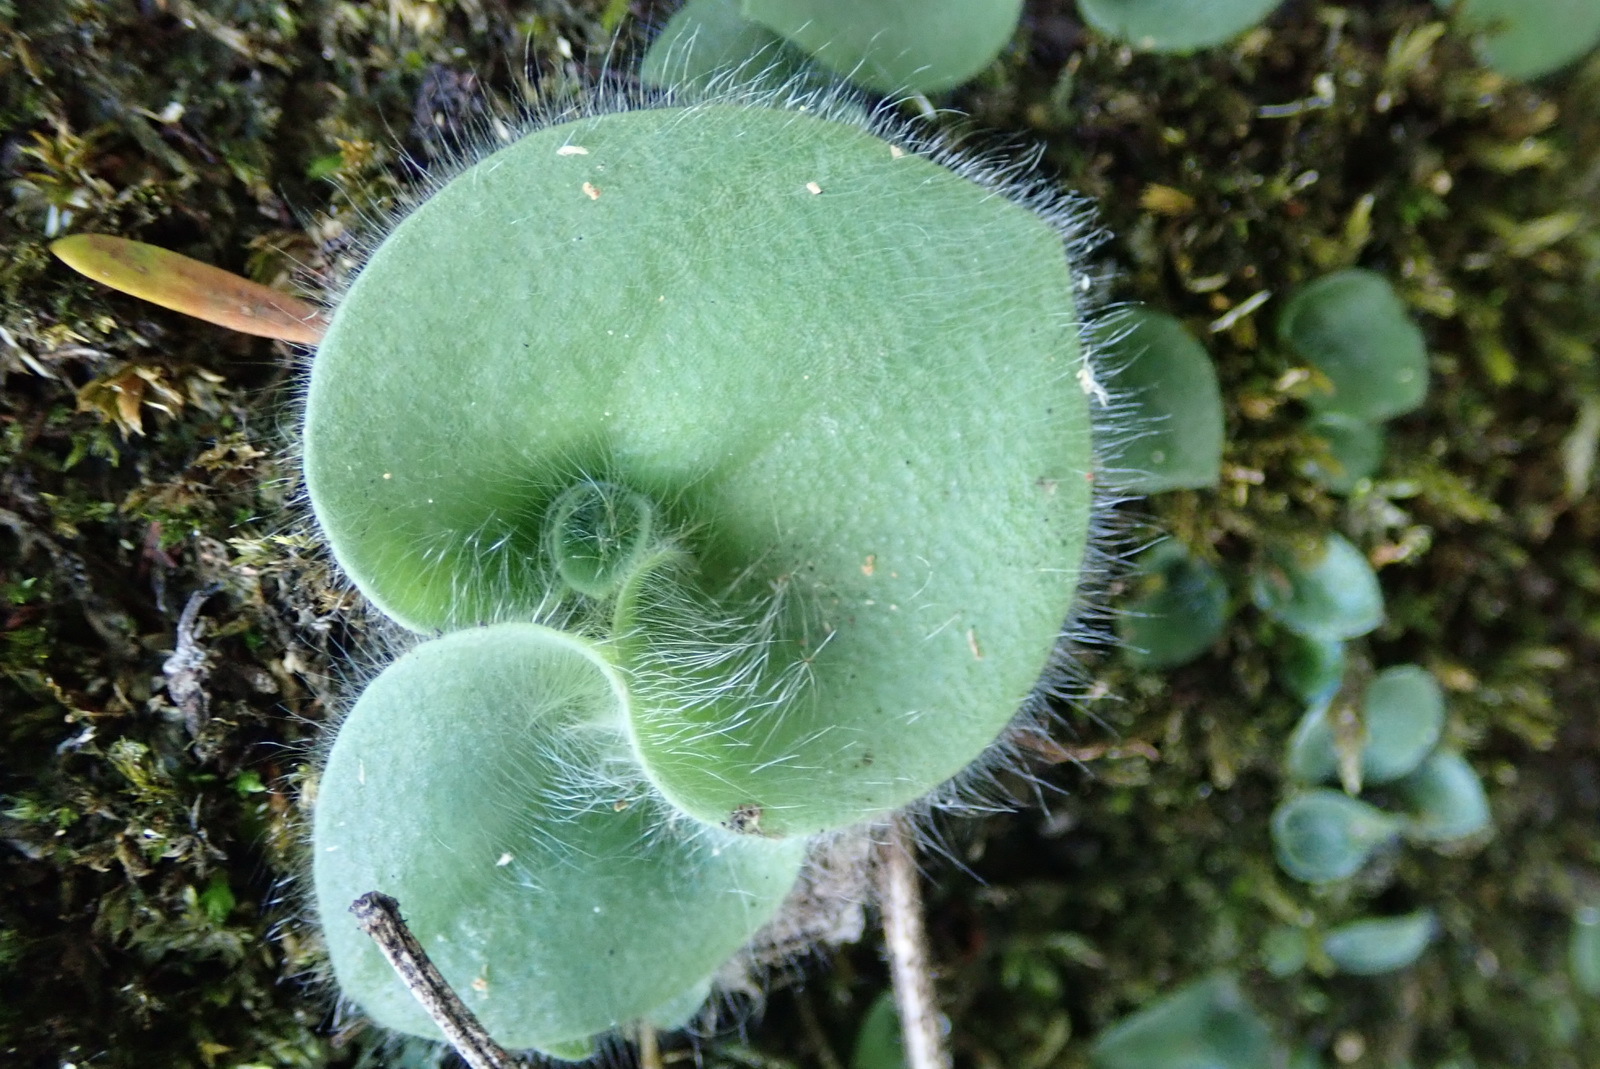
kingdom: Plantae
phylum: Tracheophyta
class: Liliopsida
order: Asparagales
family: Orchidaceae
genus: Holothrix
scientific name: Holothrix villosa
